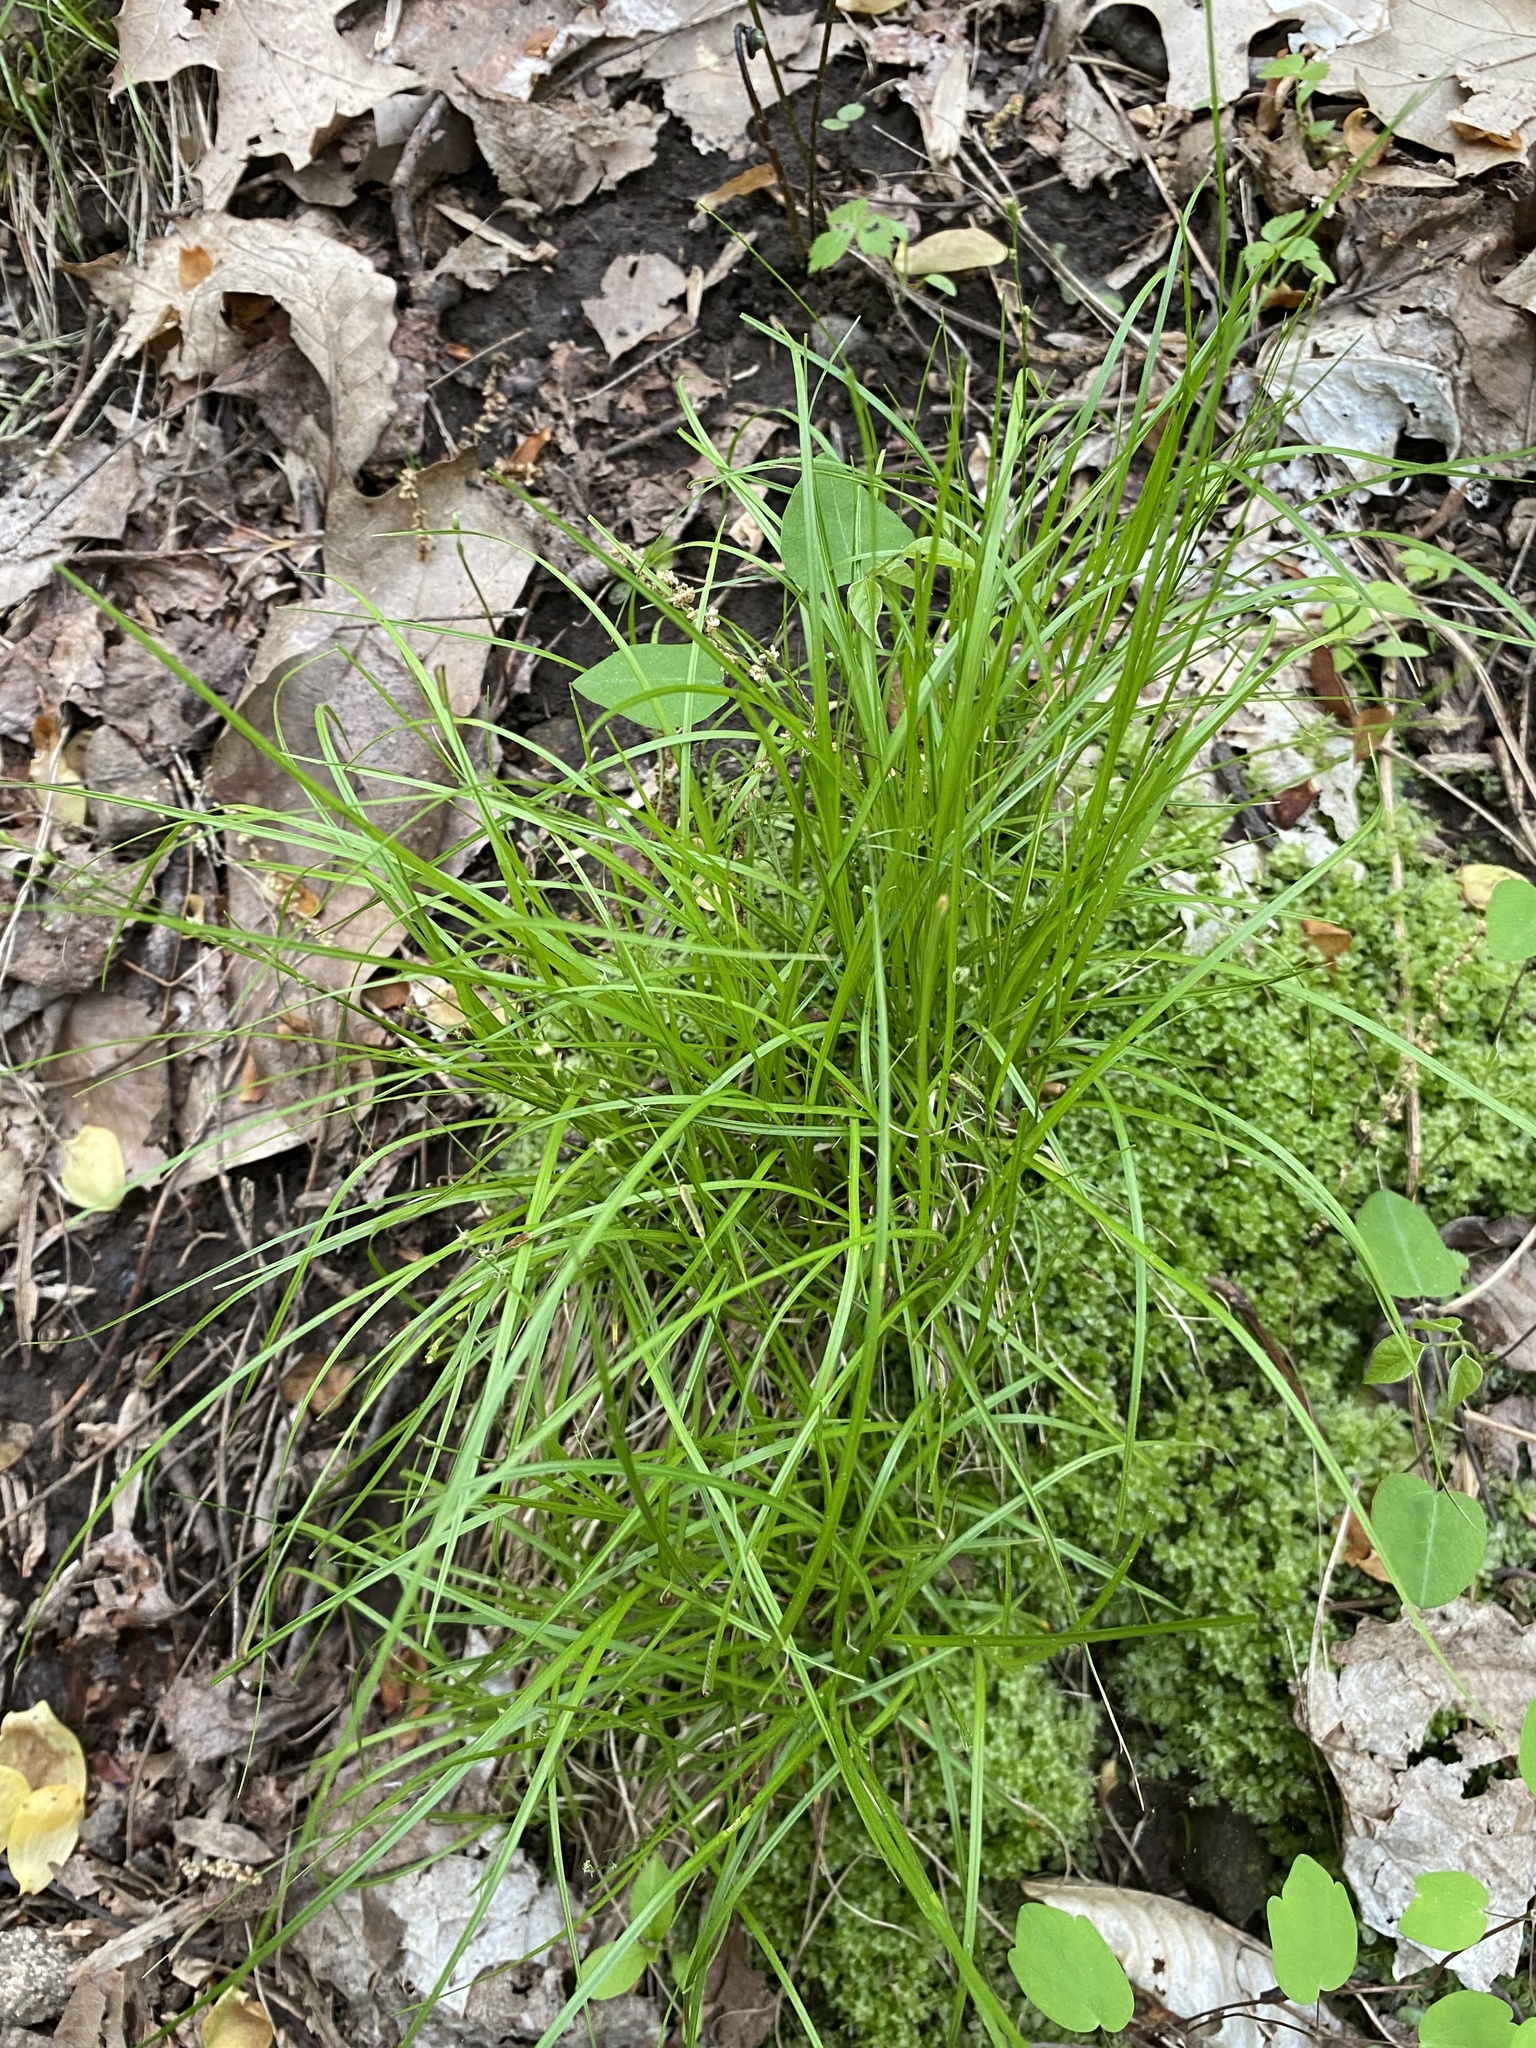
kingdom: Plantae
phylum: Tracheophyta
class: Liliopsida
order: Poales
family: Cyperaceae
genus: Carex
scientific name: Carex
